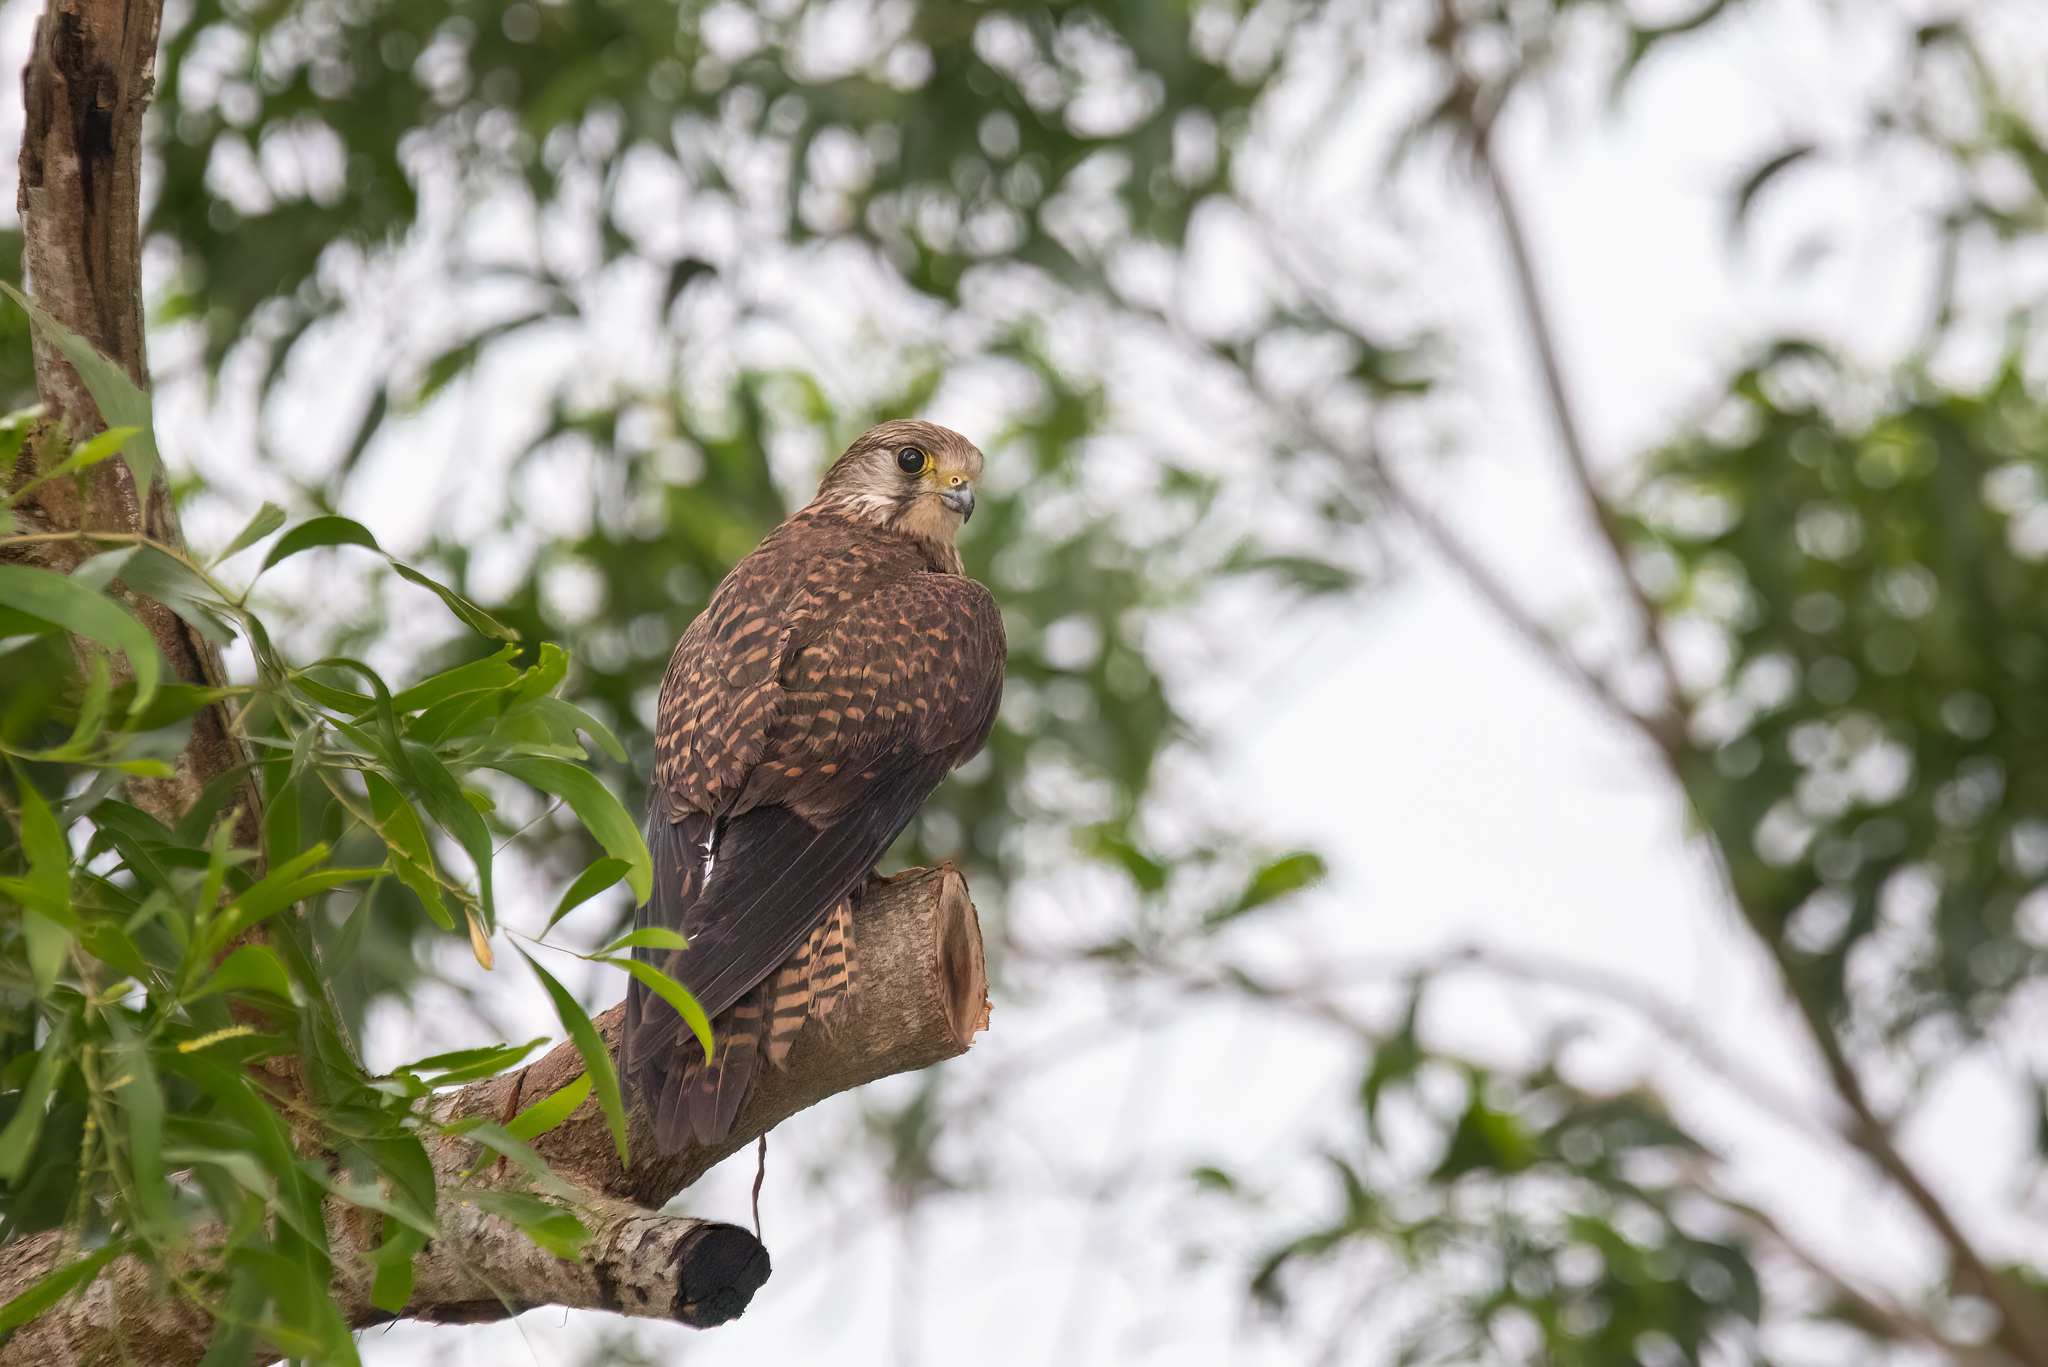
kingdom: Animalia
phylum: Chordata
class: Aves
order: Falconiformes
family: Falconidae
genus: Falco
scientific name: Falco tinnunculus
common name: Common kestrel
